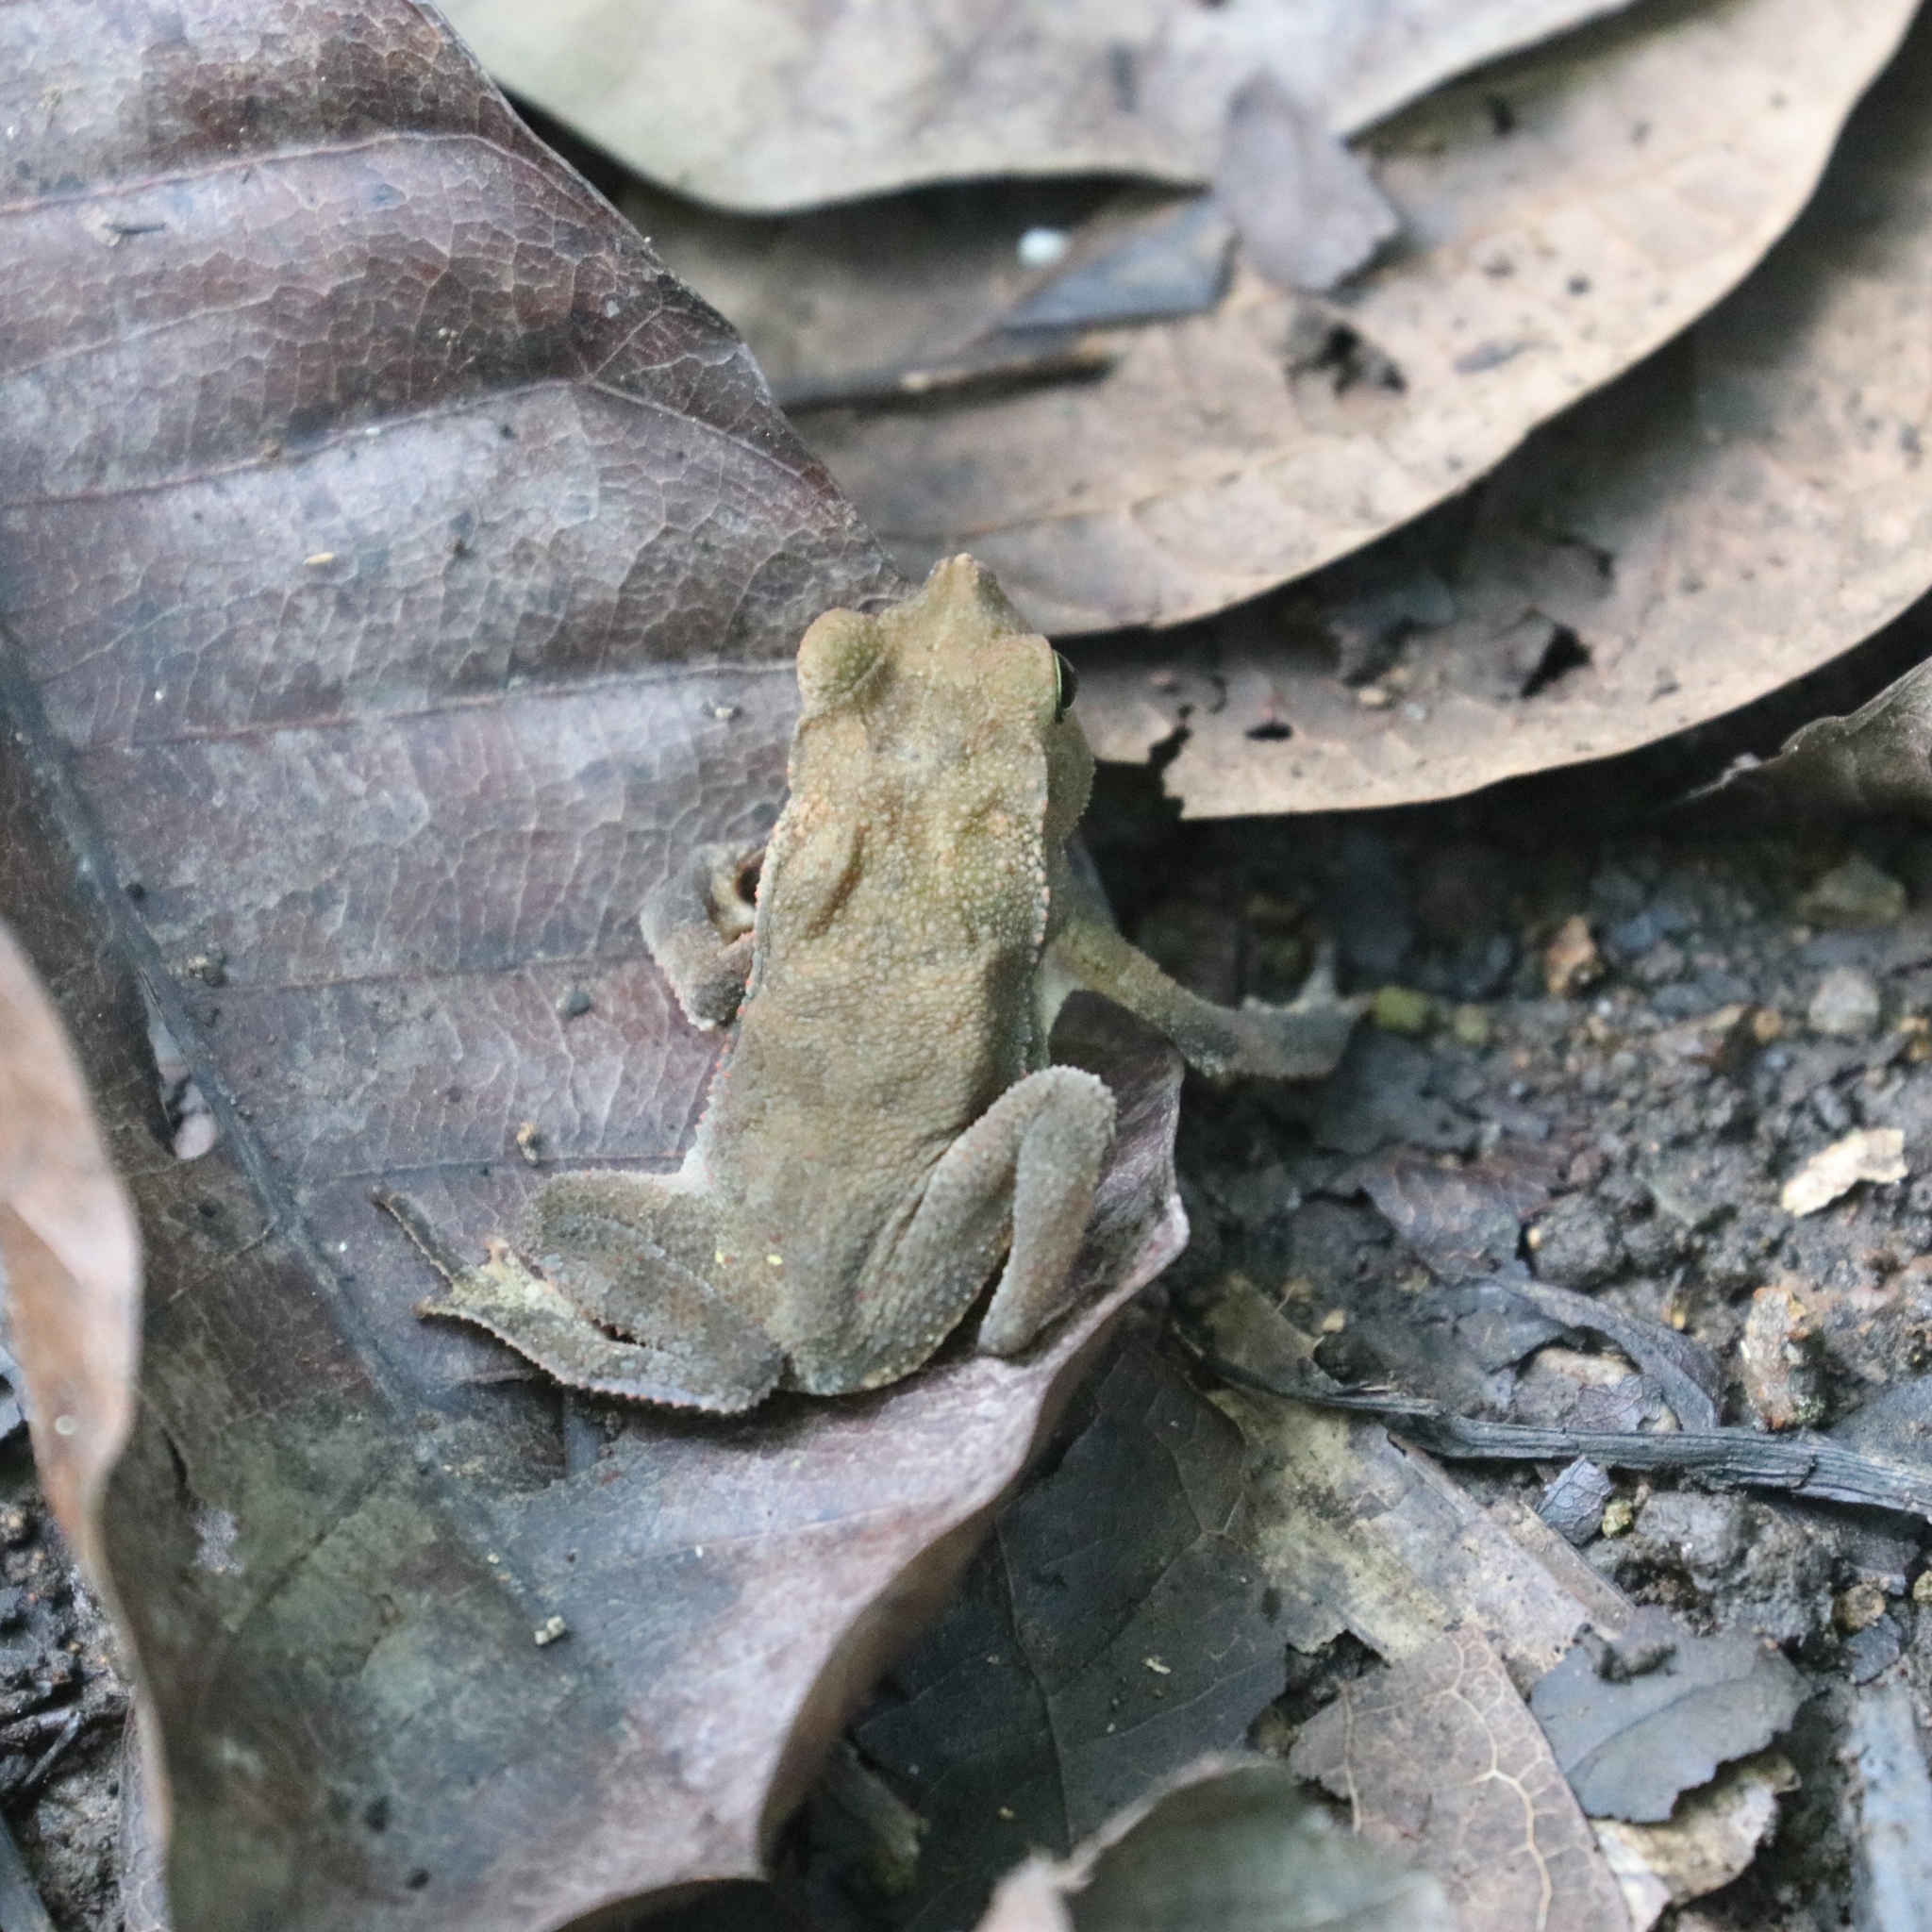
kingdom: Animalia
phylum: Chordata
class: Amphibia
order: Anura
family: Bufonidae
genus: Rhinella
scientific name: Rhinella alata
